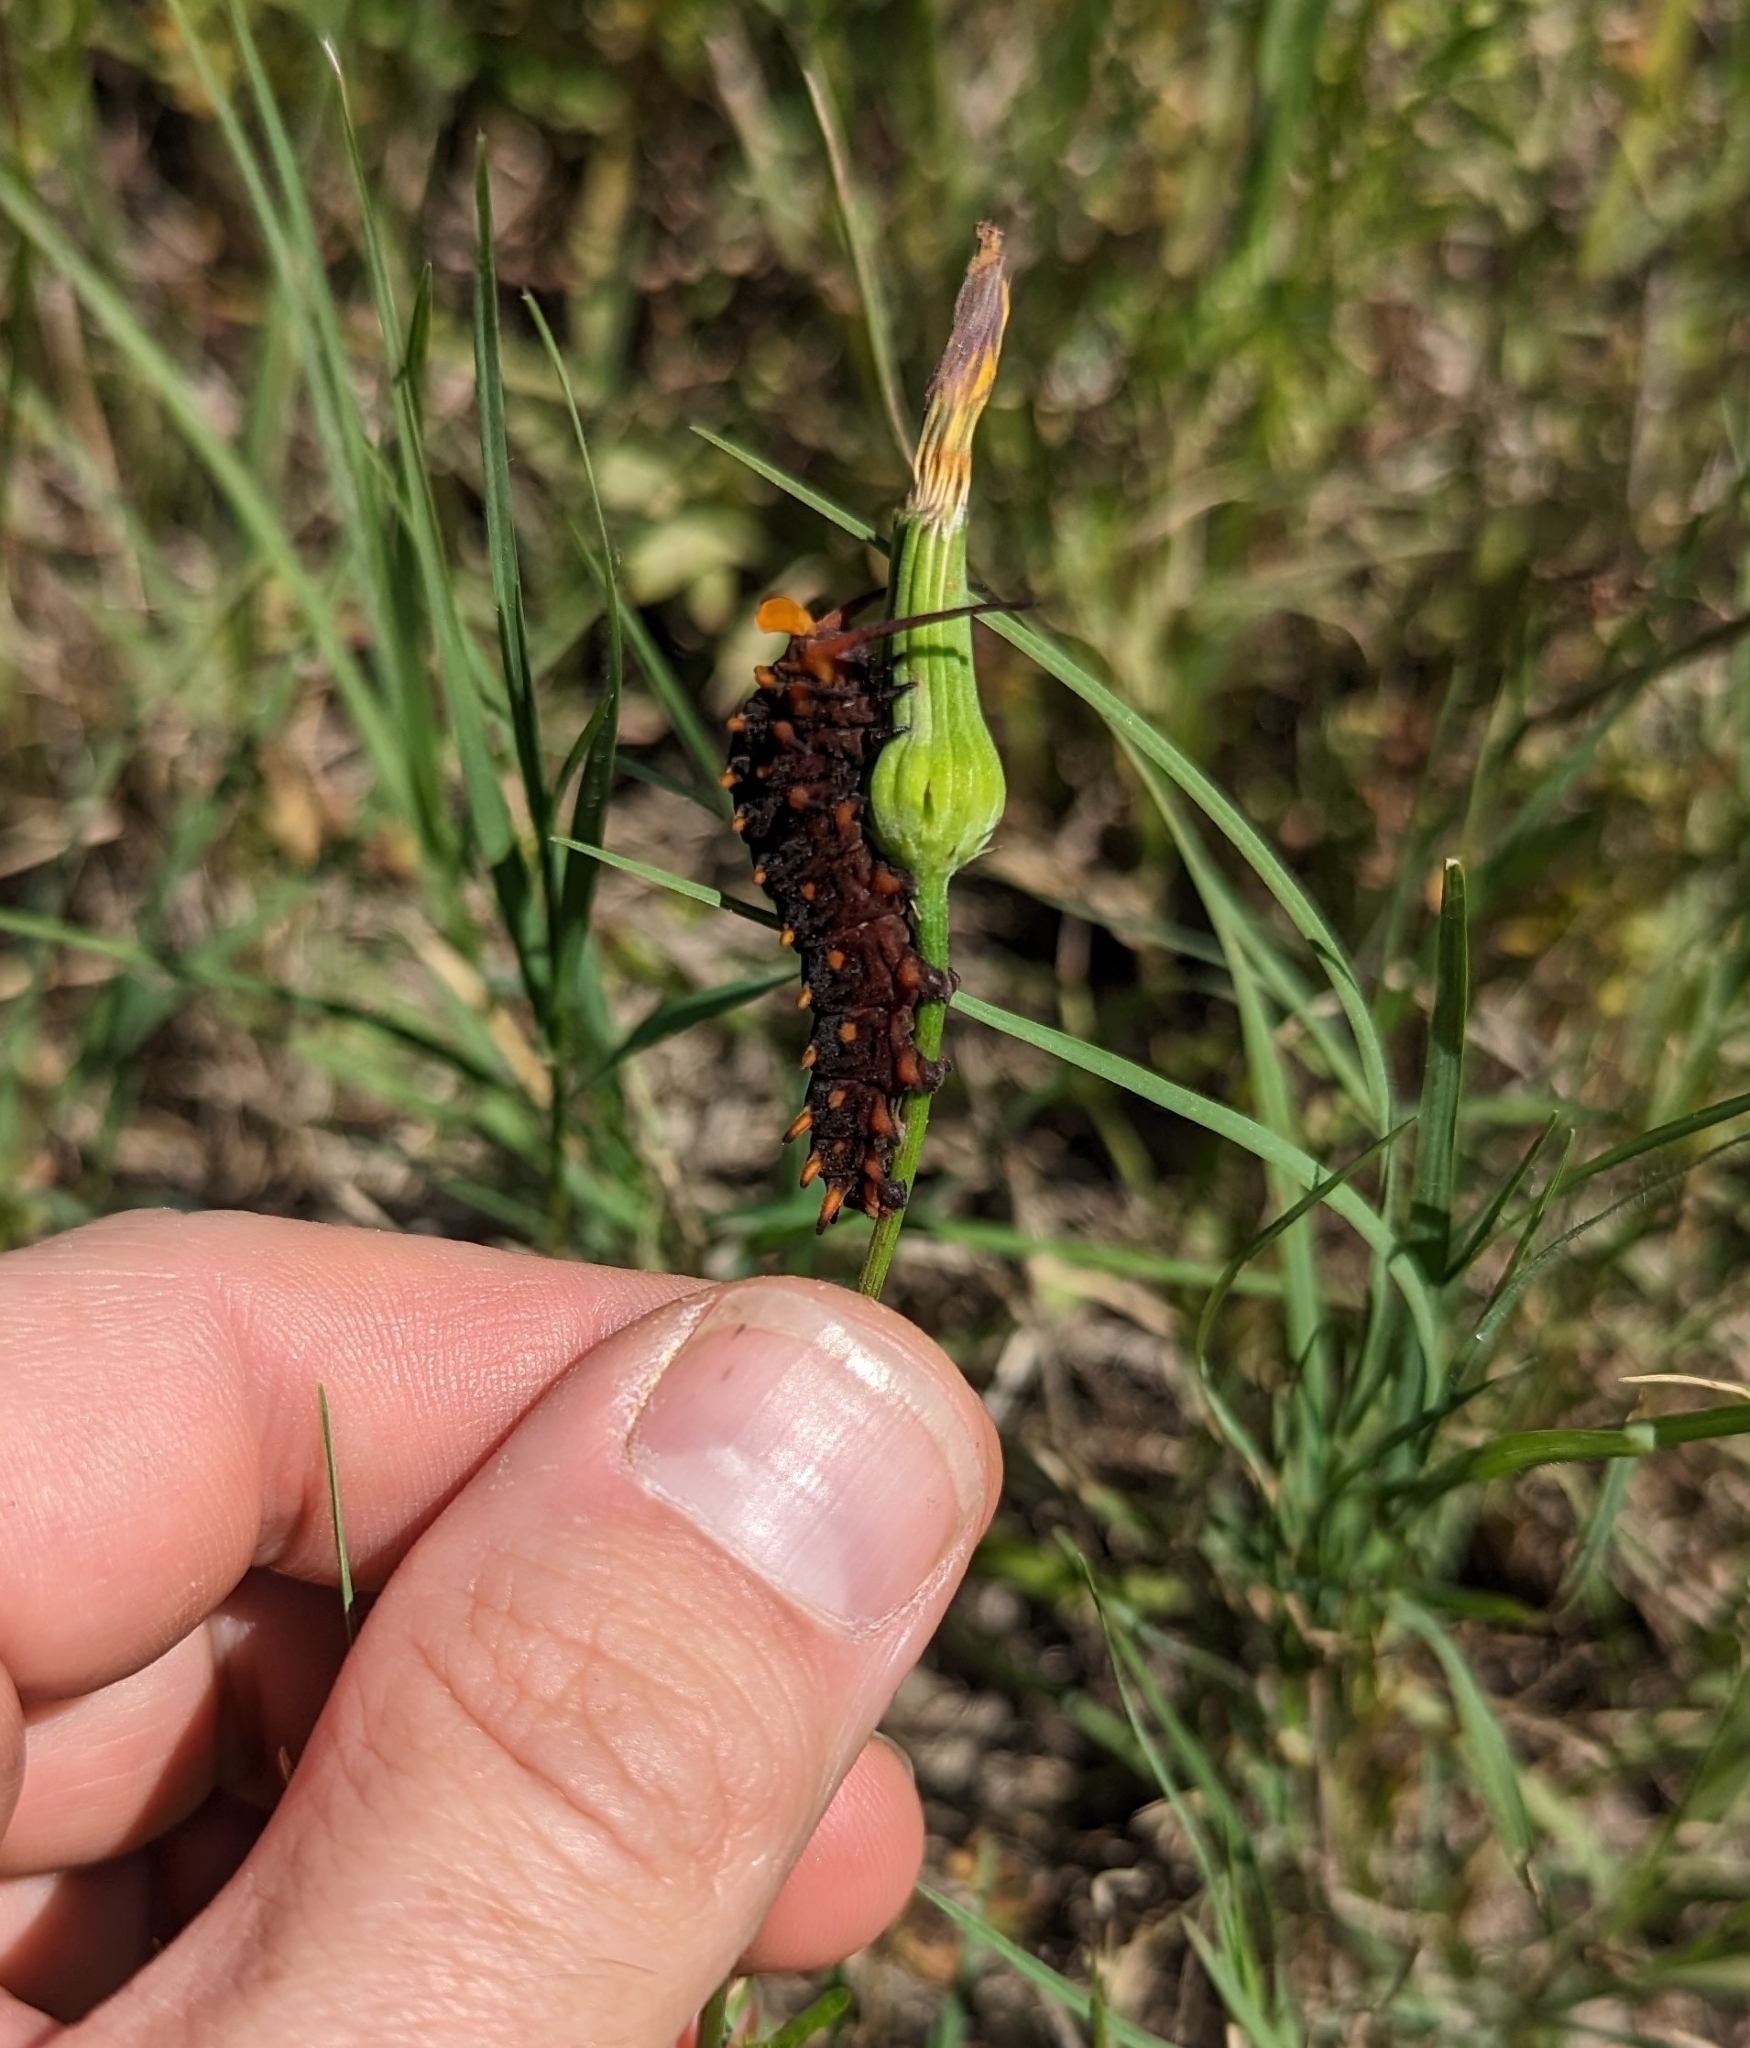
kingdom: Animalia
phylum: Arthropoda
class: Insecta
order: Lepidoptera
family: Papilionidae
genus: Battus
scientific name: Battus philenor
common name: Pipevine swallowtail
